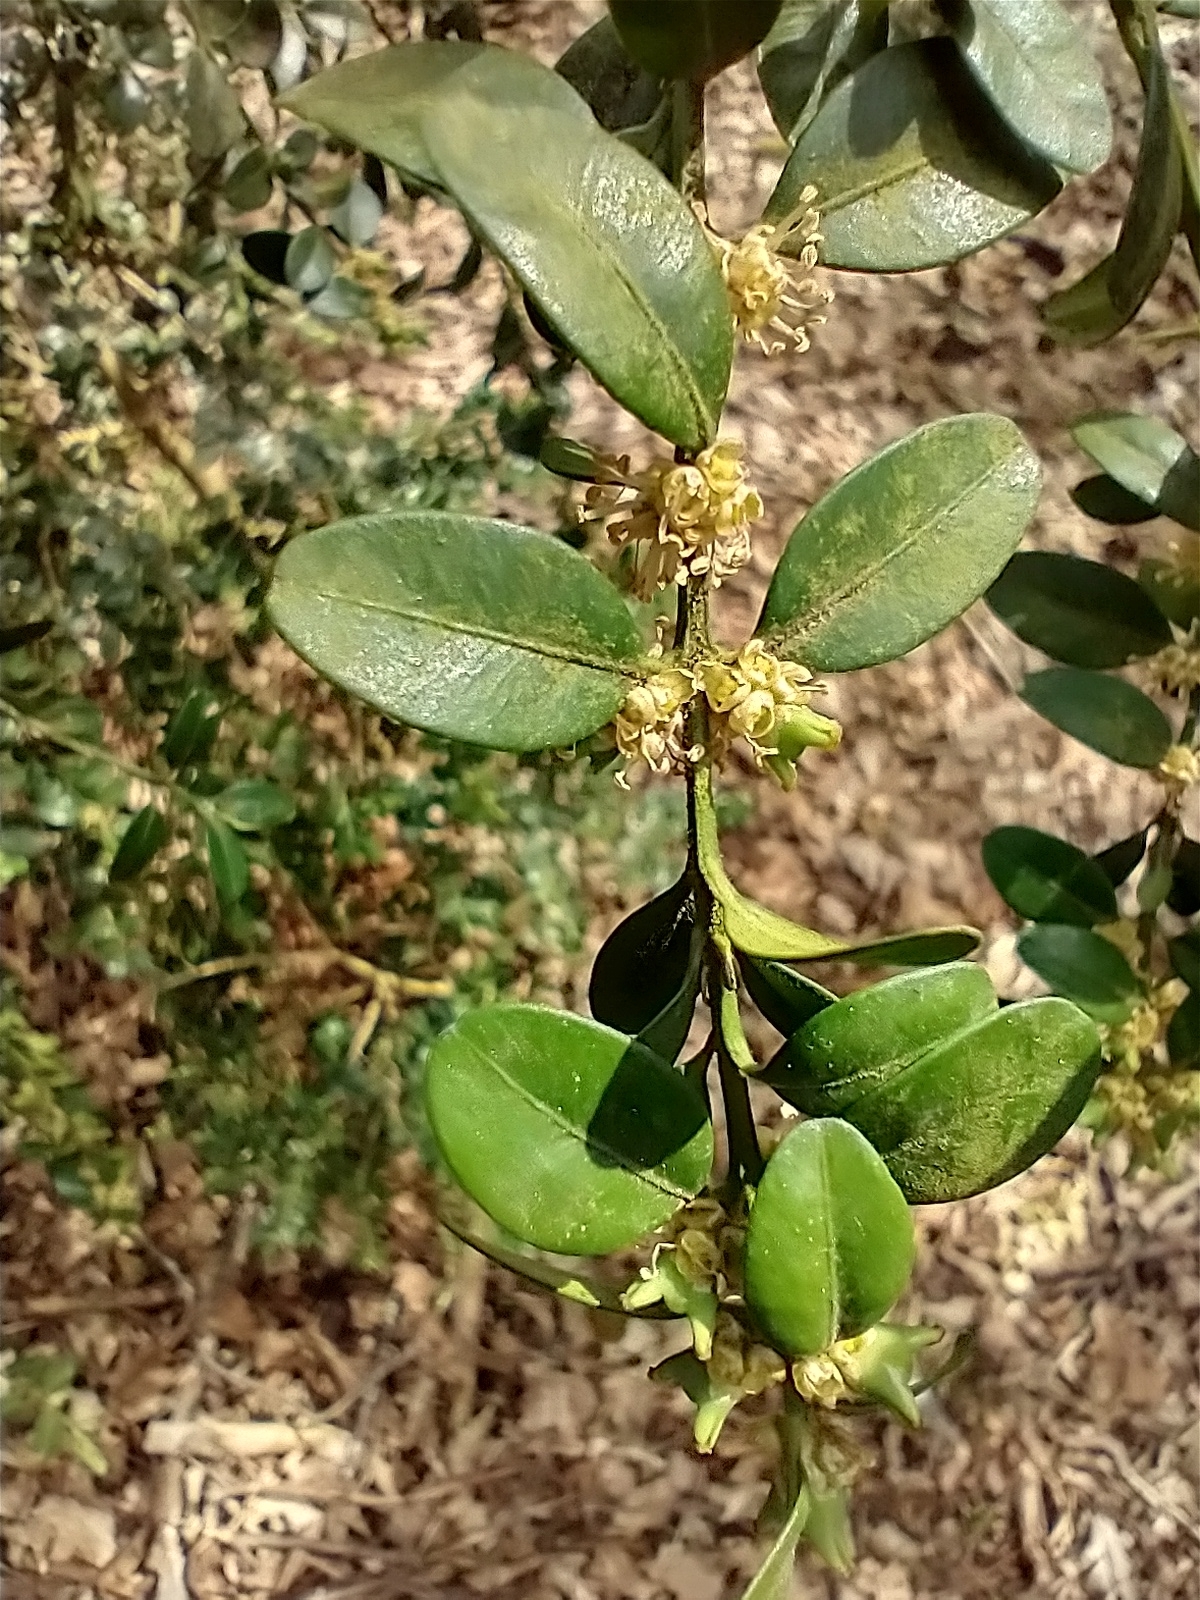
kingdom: Plantae
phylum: Tracheophyta
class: Magnoliopsida
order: Buxales
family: Buxaceae
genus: Buxus
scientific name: Buxus sempervirens
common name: Box
